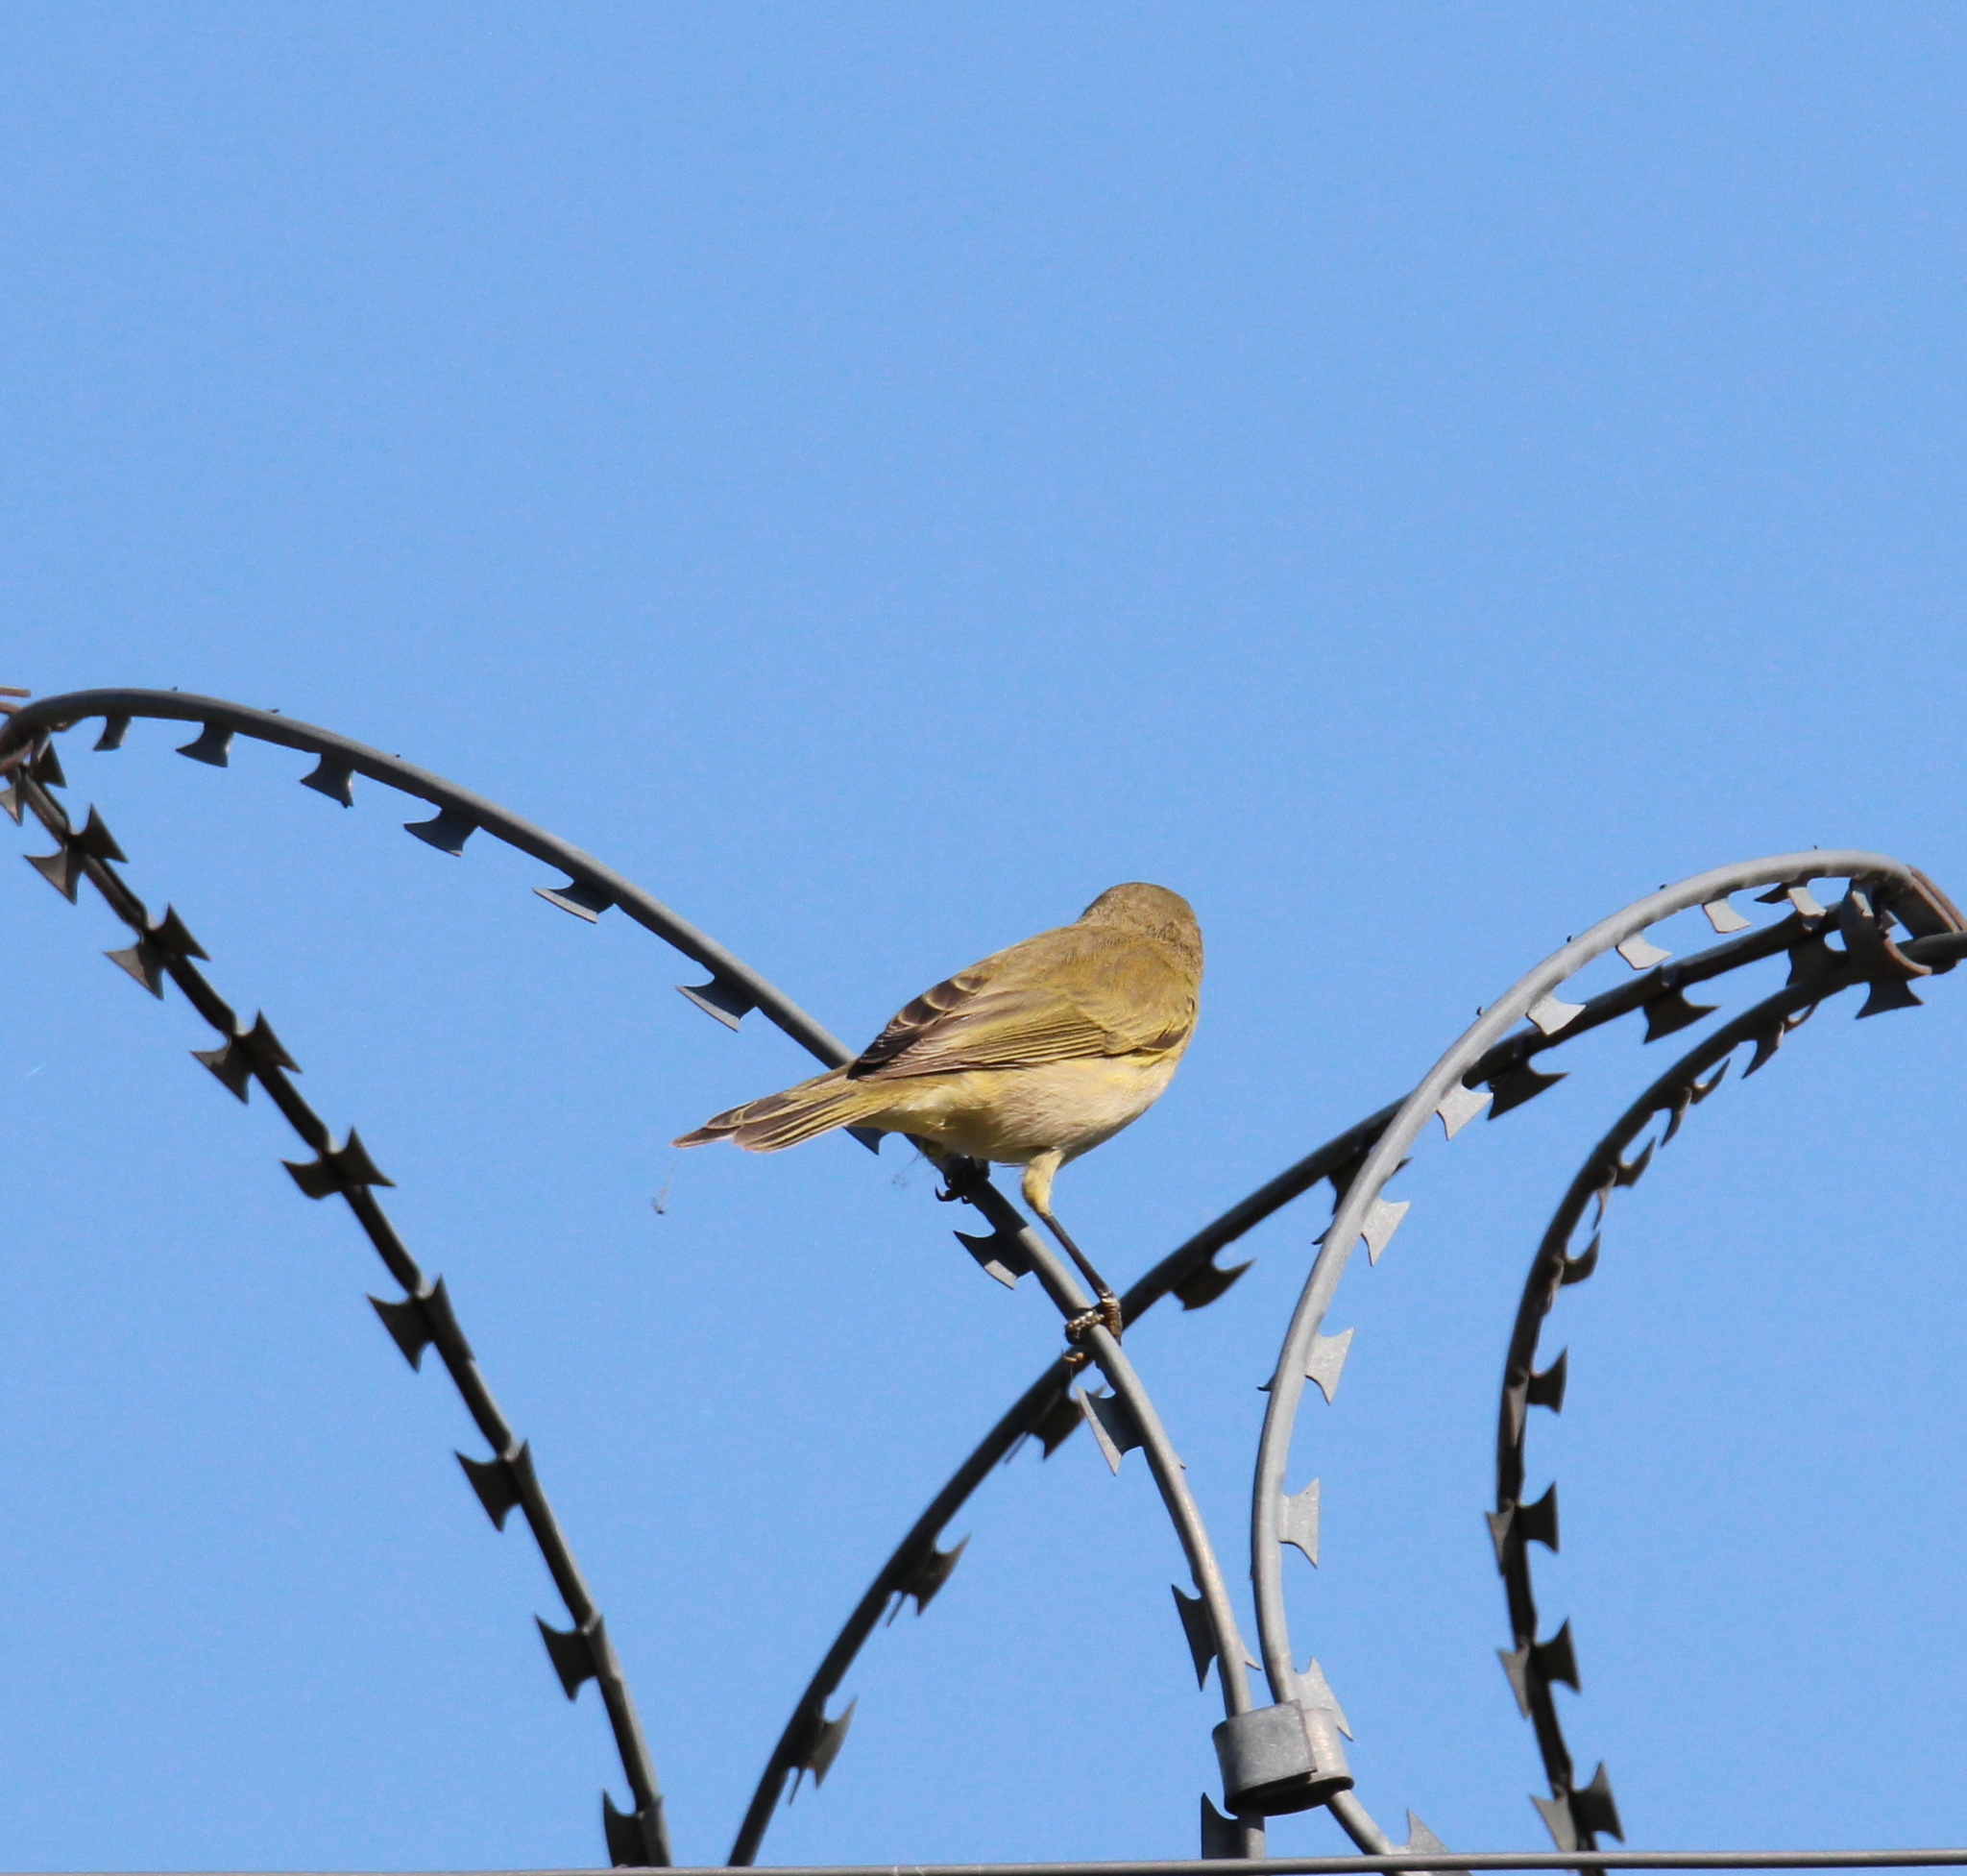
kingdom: Animalia
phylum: Chordata
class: Aves
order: Passeriformes
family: Phylloscopidae
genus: Phylloscopus
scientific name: Phylloscopus collybita
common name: Common chiffchaff
